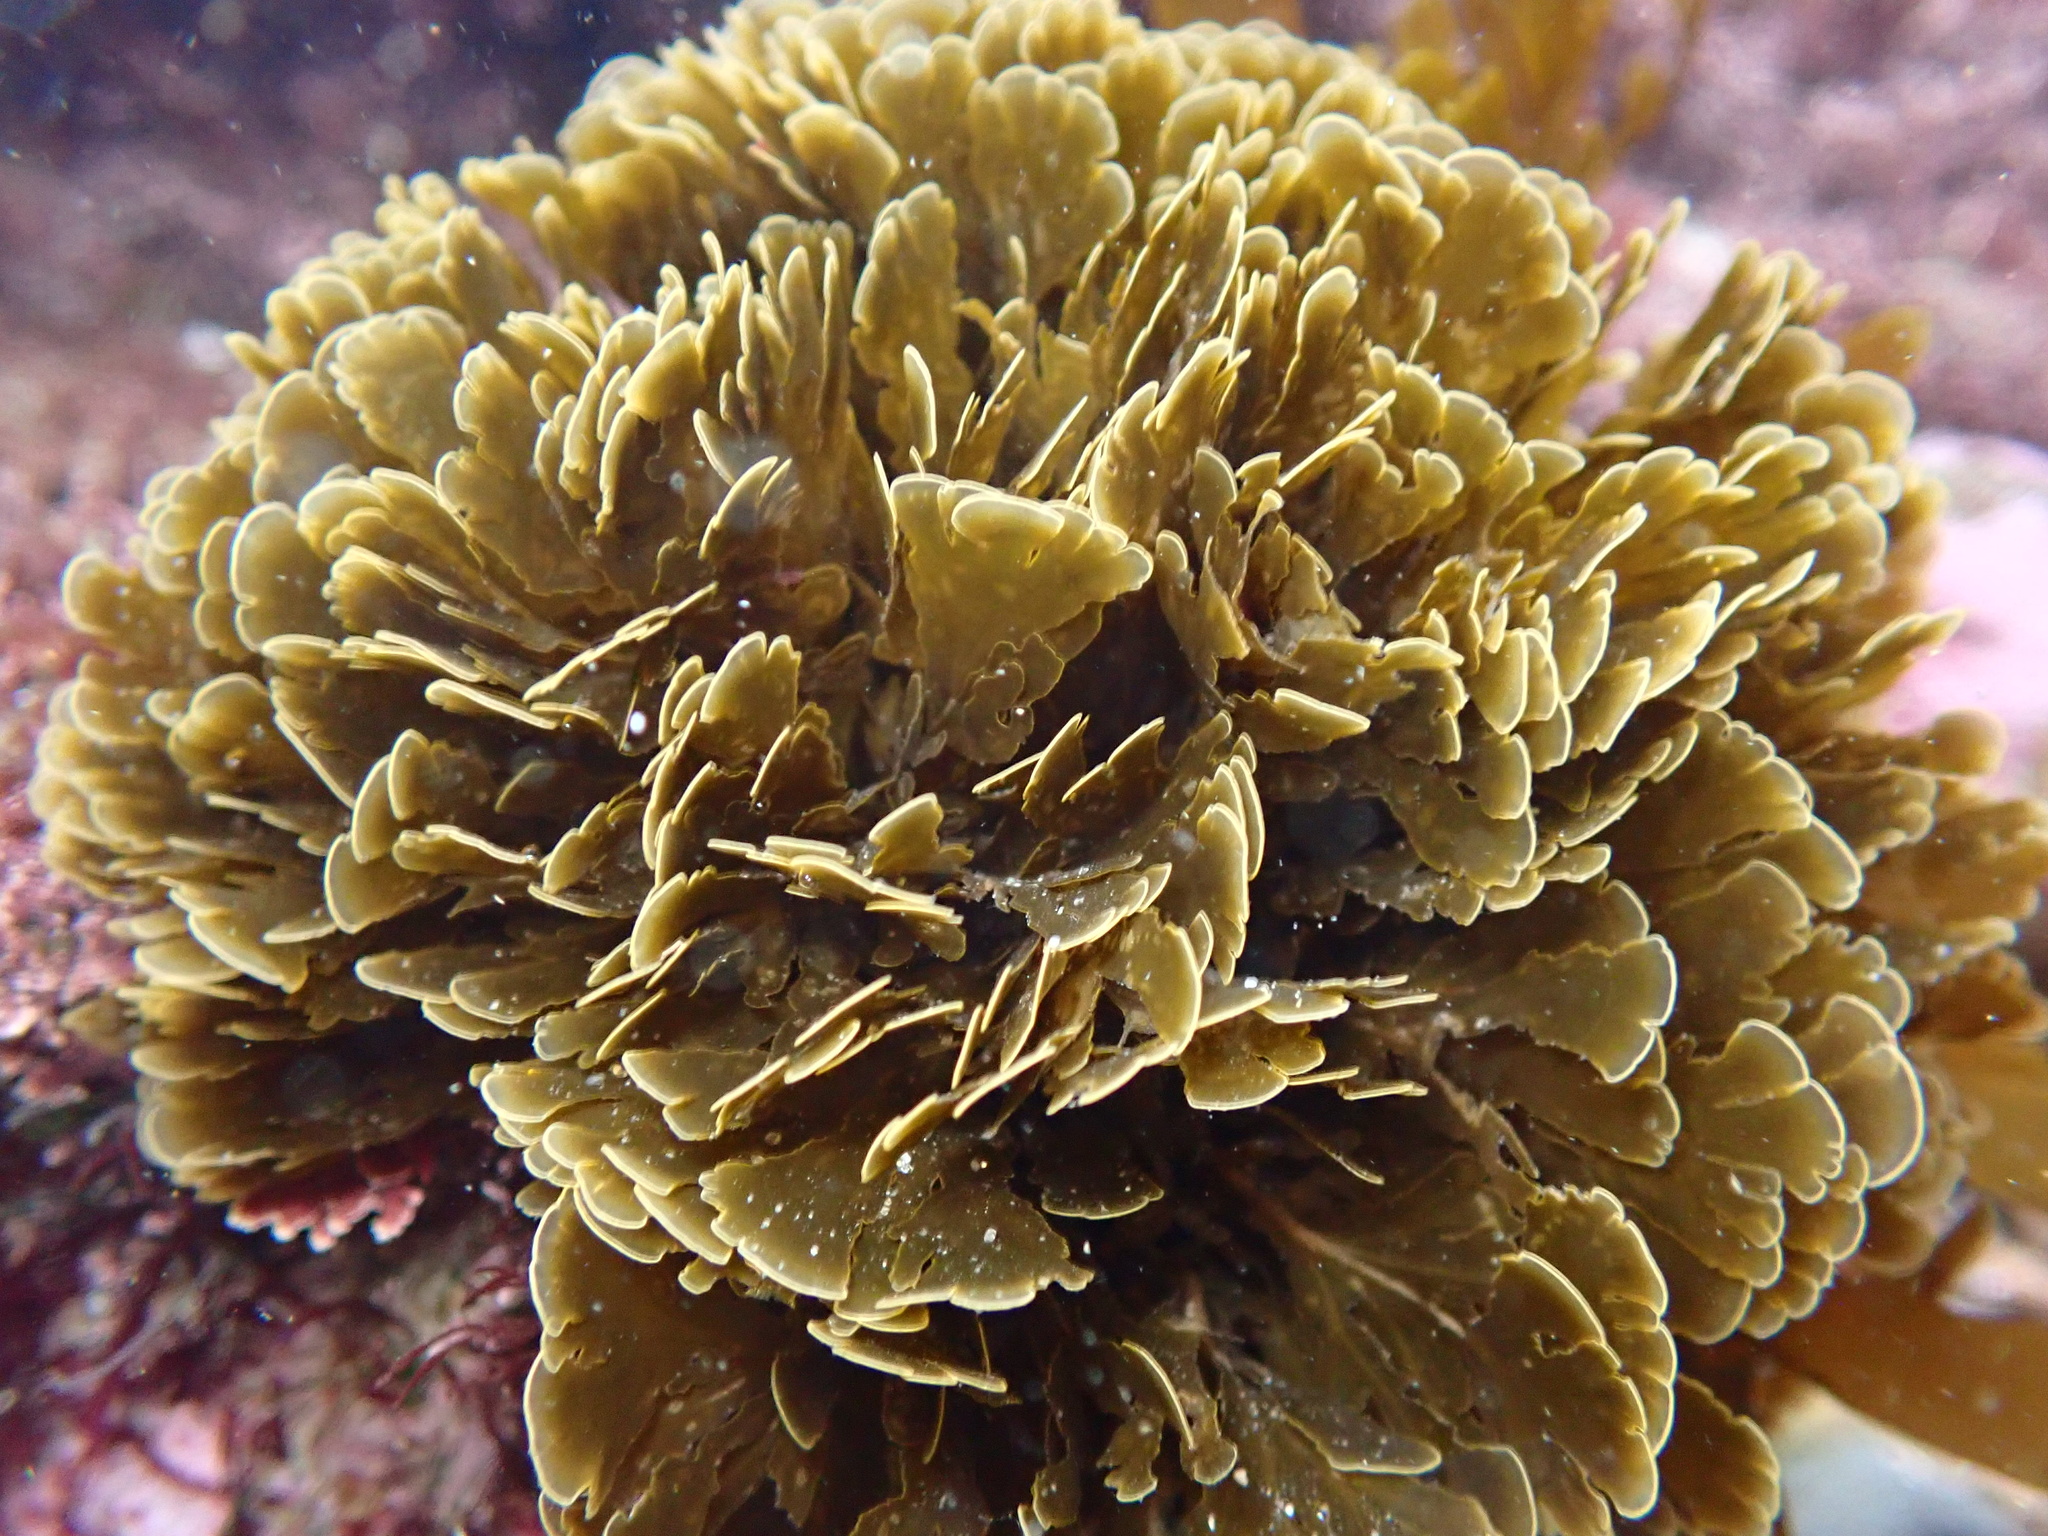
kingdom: Chromista
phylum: Ochrophyta
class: Phaeophyceae
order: Dictyotales
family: Dictyotaceae
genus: Zonaria
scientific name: Zonaria farlowii
